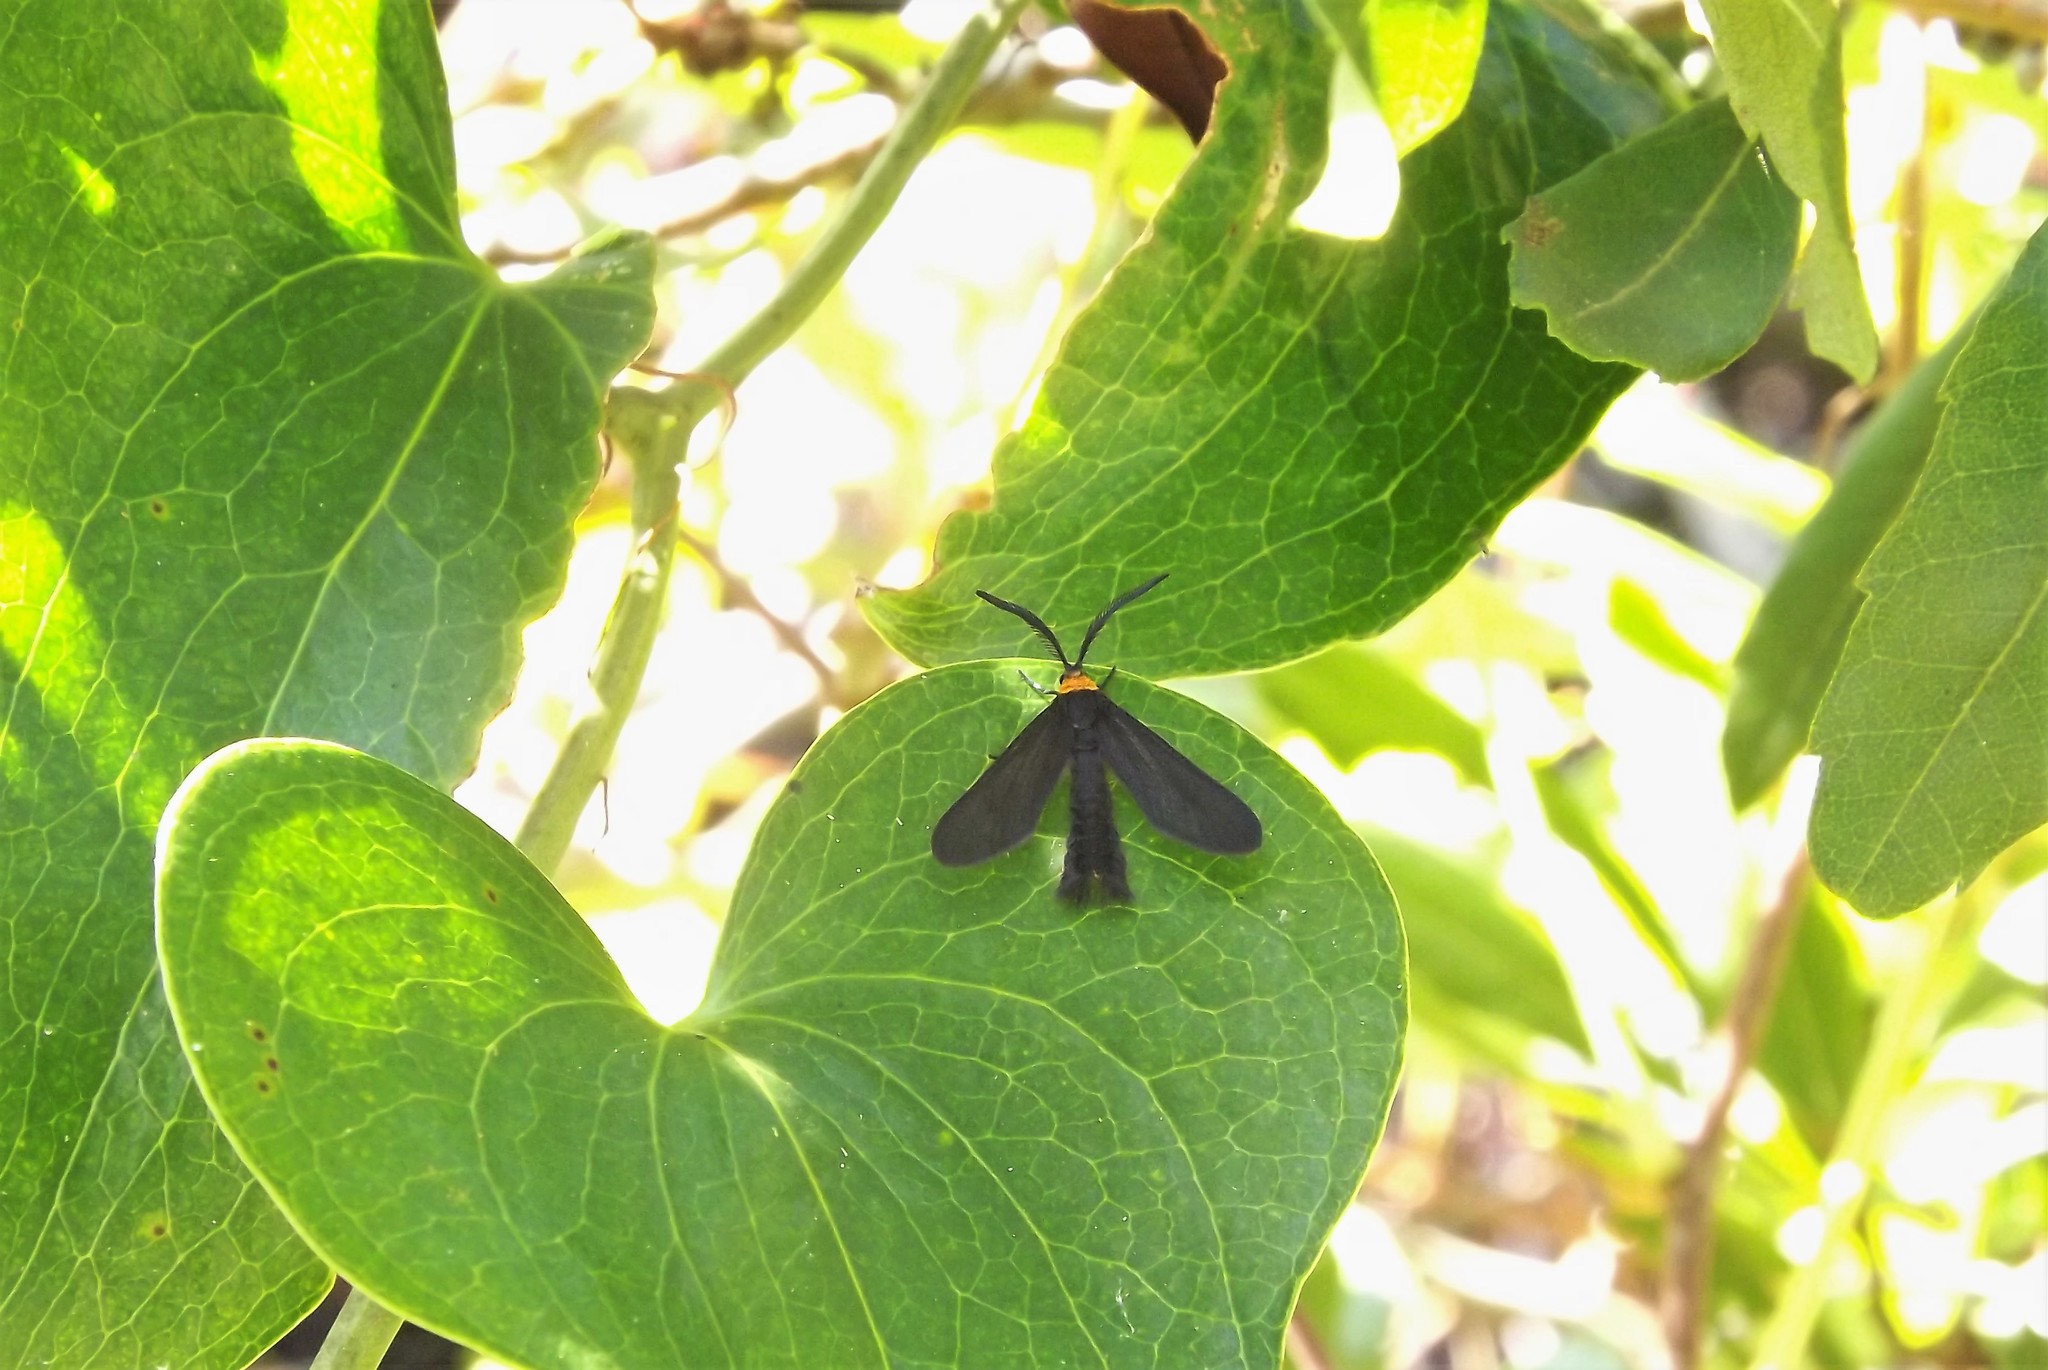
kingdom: Animalia
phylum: Arthropoda
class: Insecta
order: Lepidoptera
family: Zygaenidae
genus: Harrisina
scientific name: Harrisina americana
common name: Grapeleaf skeletonizer moth
